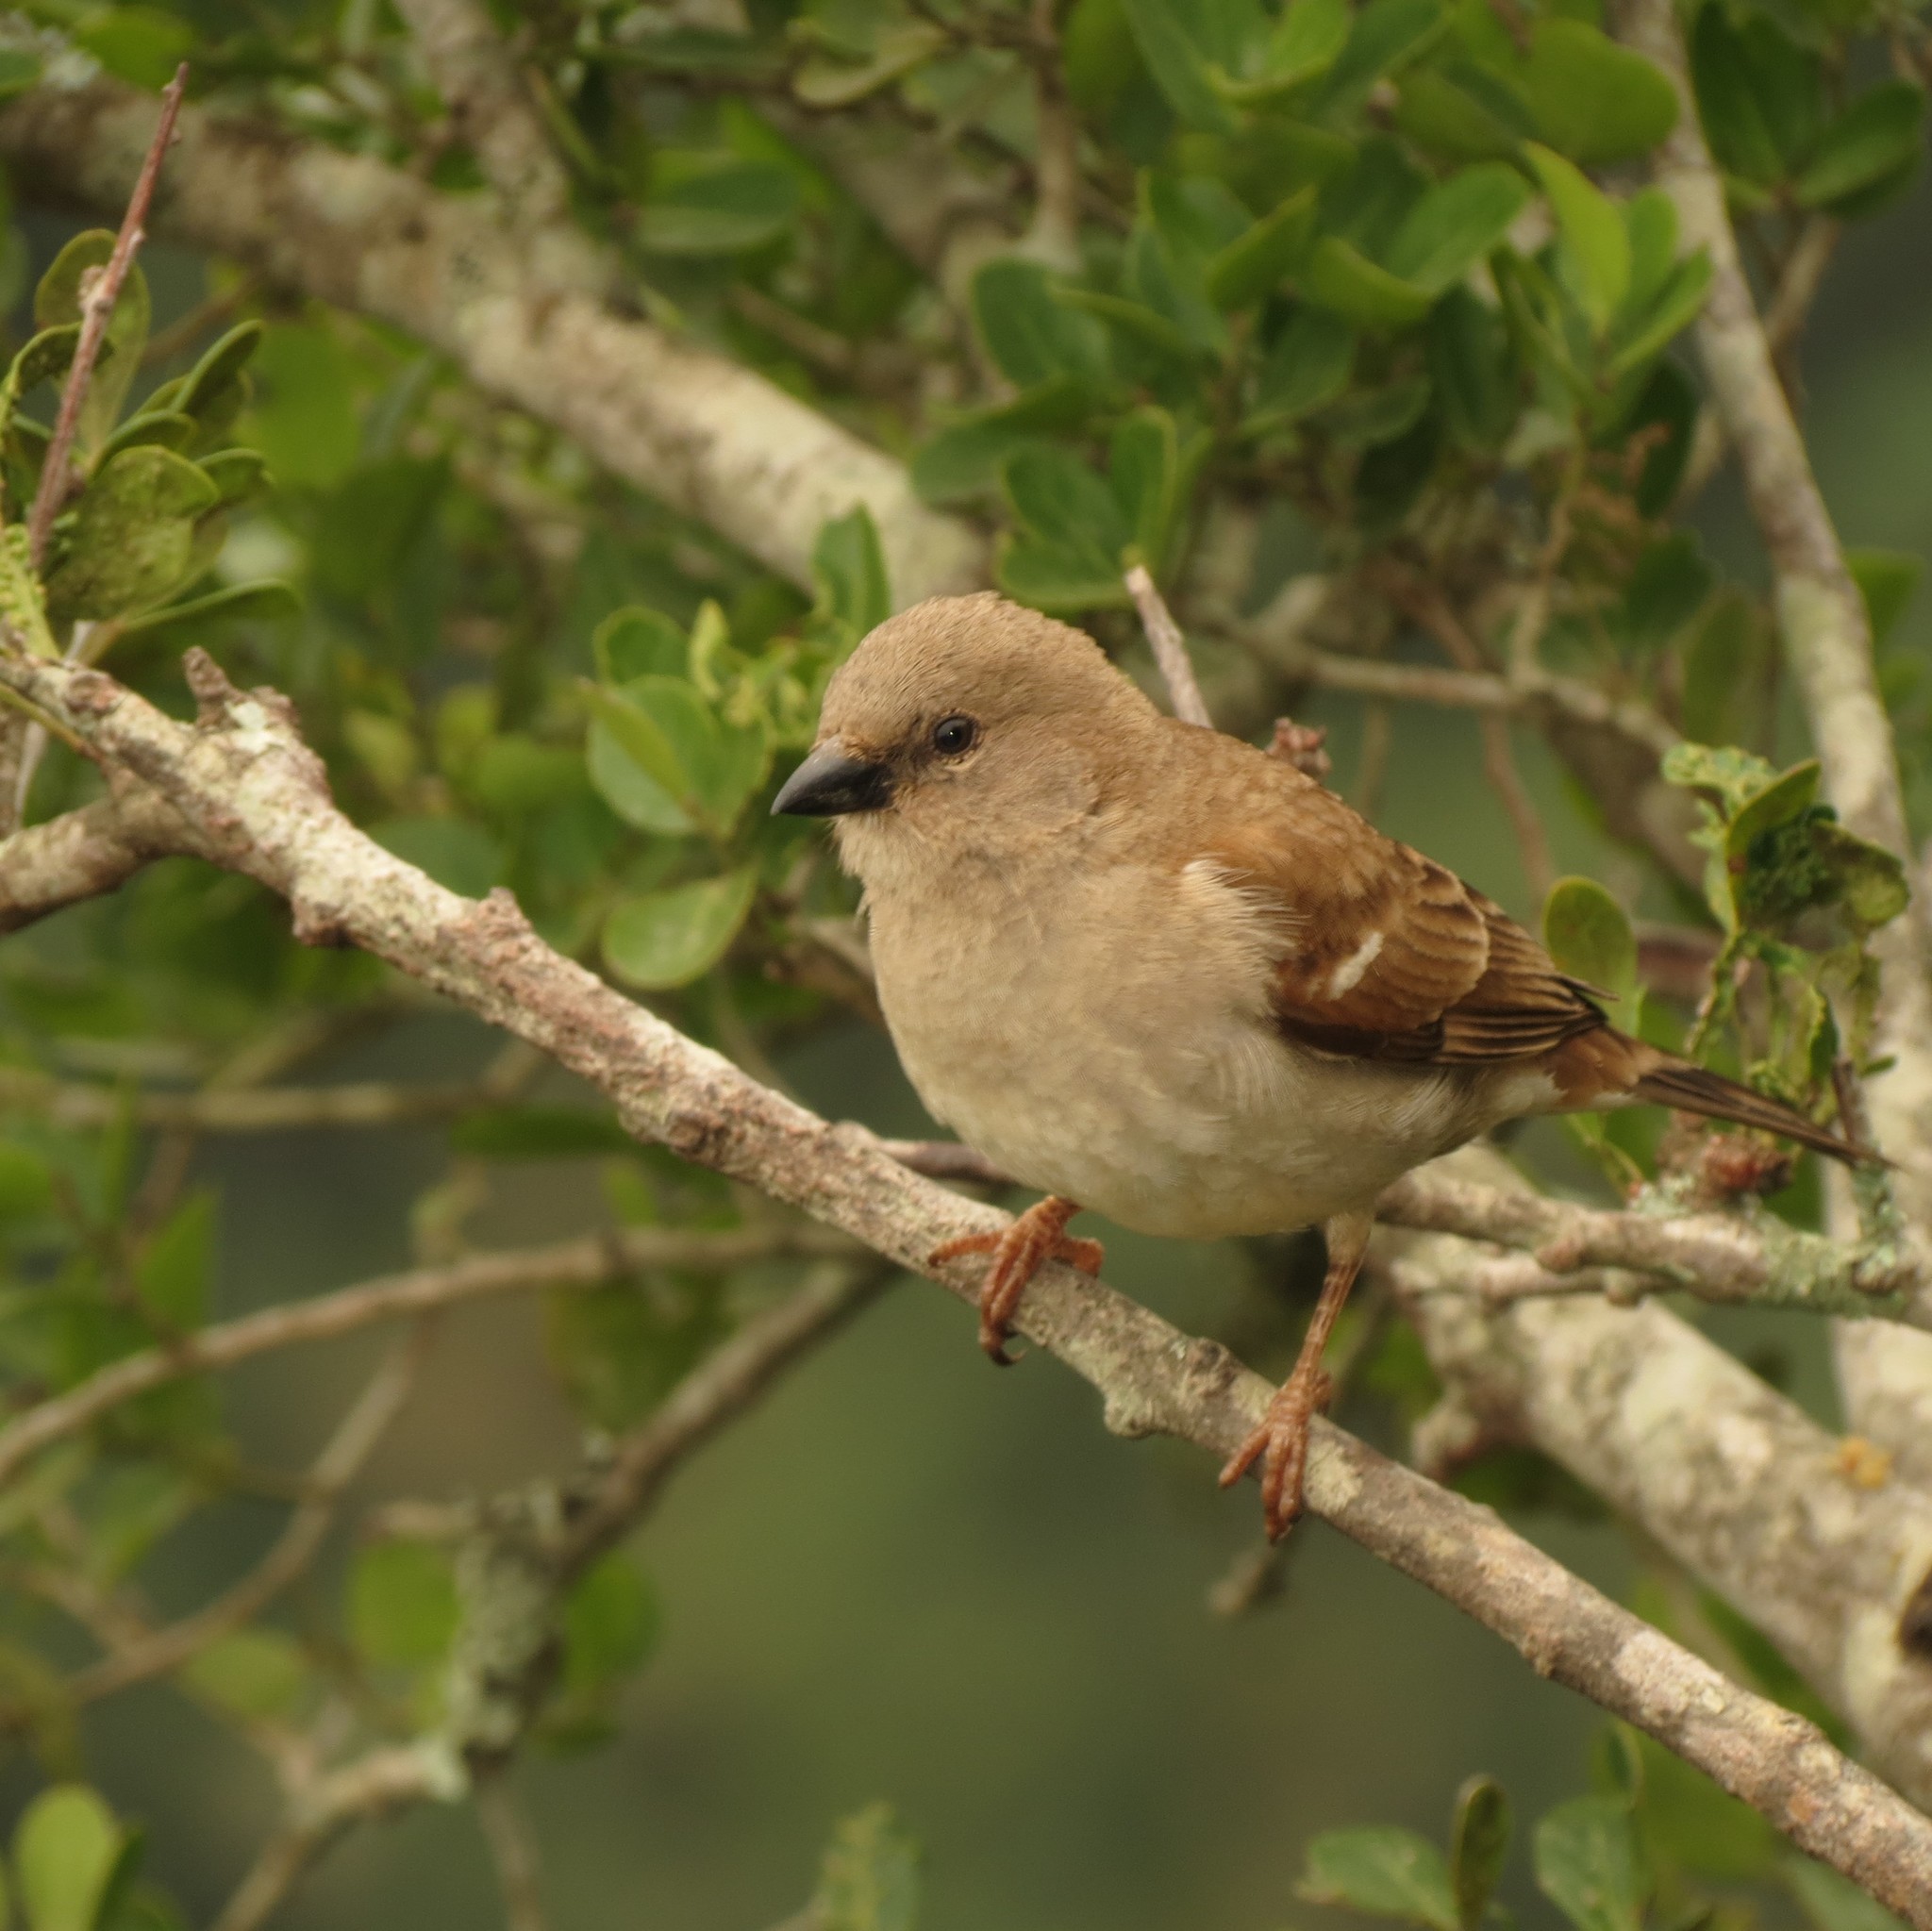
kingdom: Animalia
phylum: Chordata
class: Aves
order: Passeriformes
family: Passeridae
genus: Passer
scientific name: Passer diffusus
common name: Southern grey-headed sparrow
